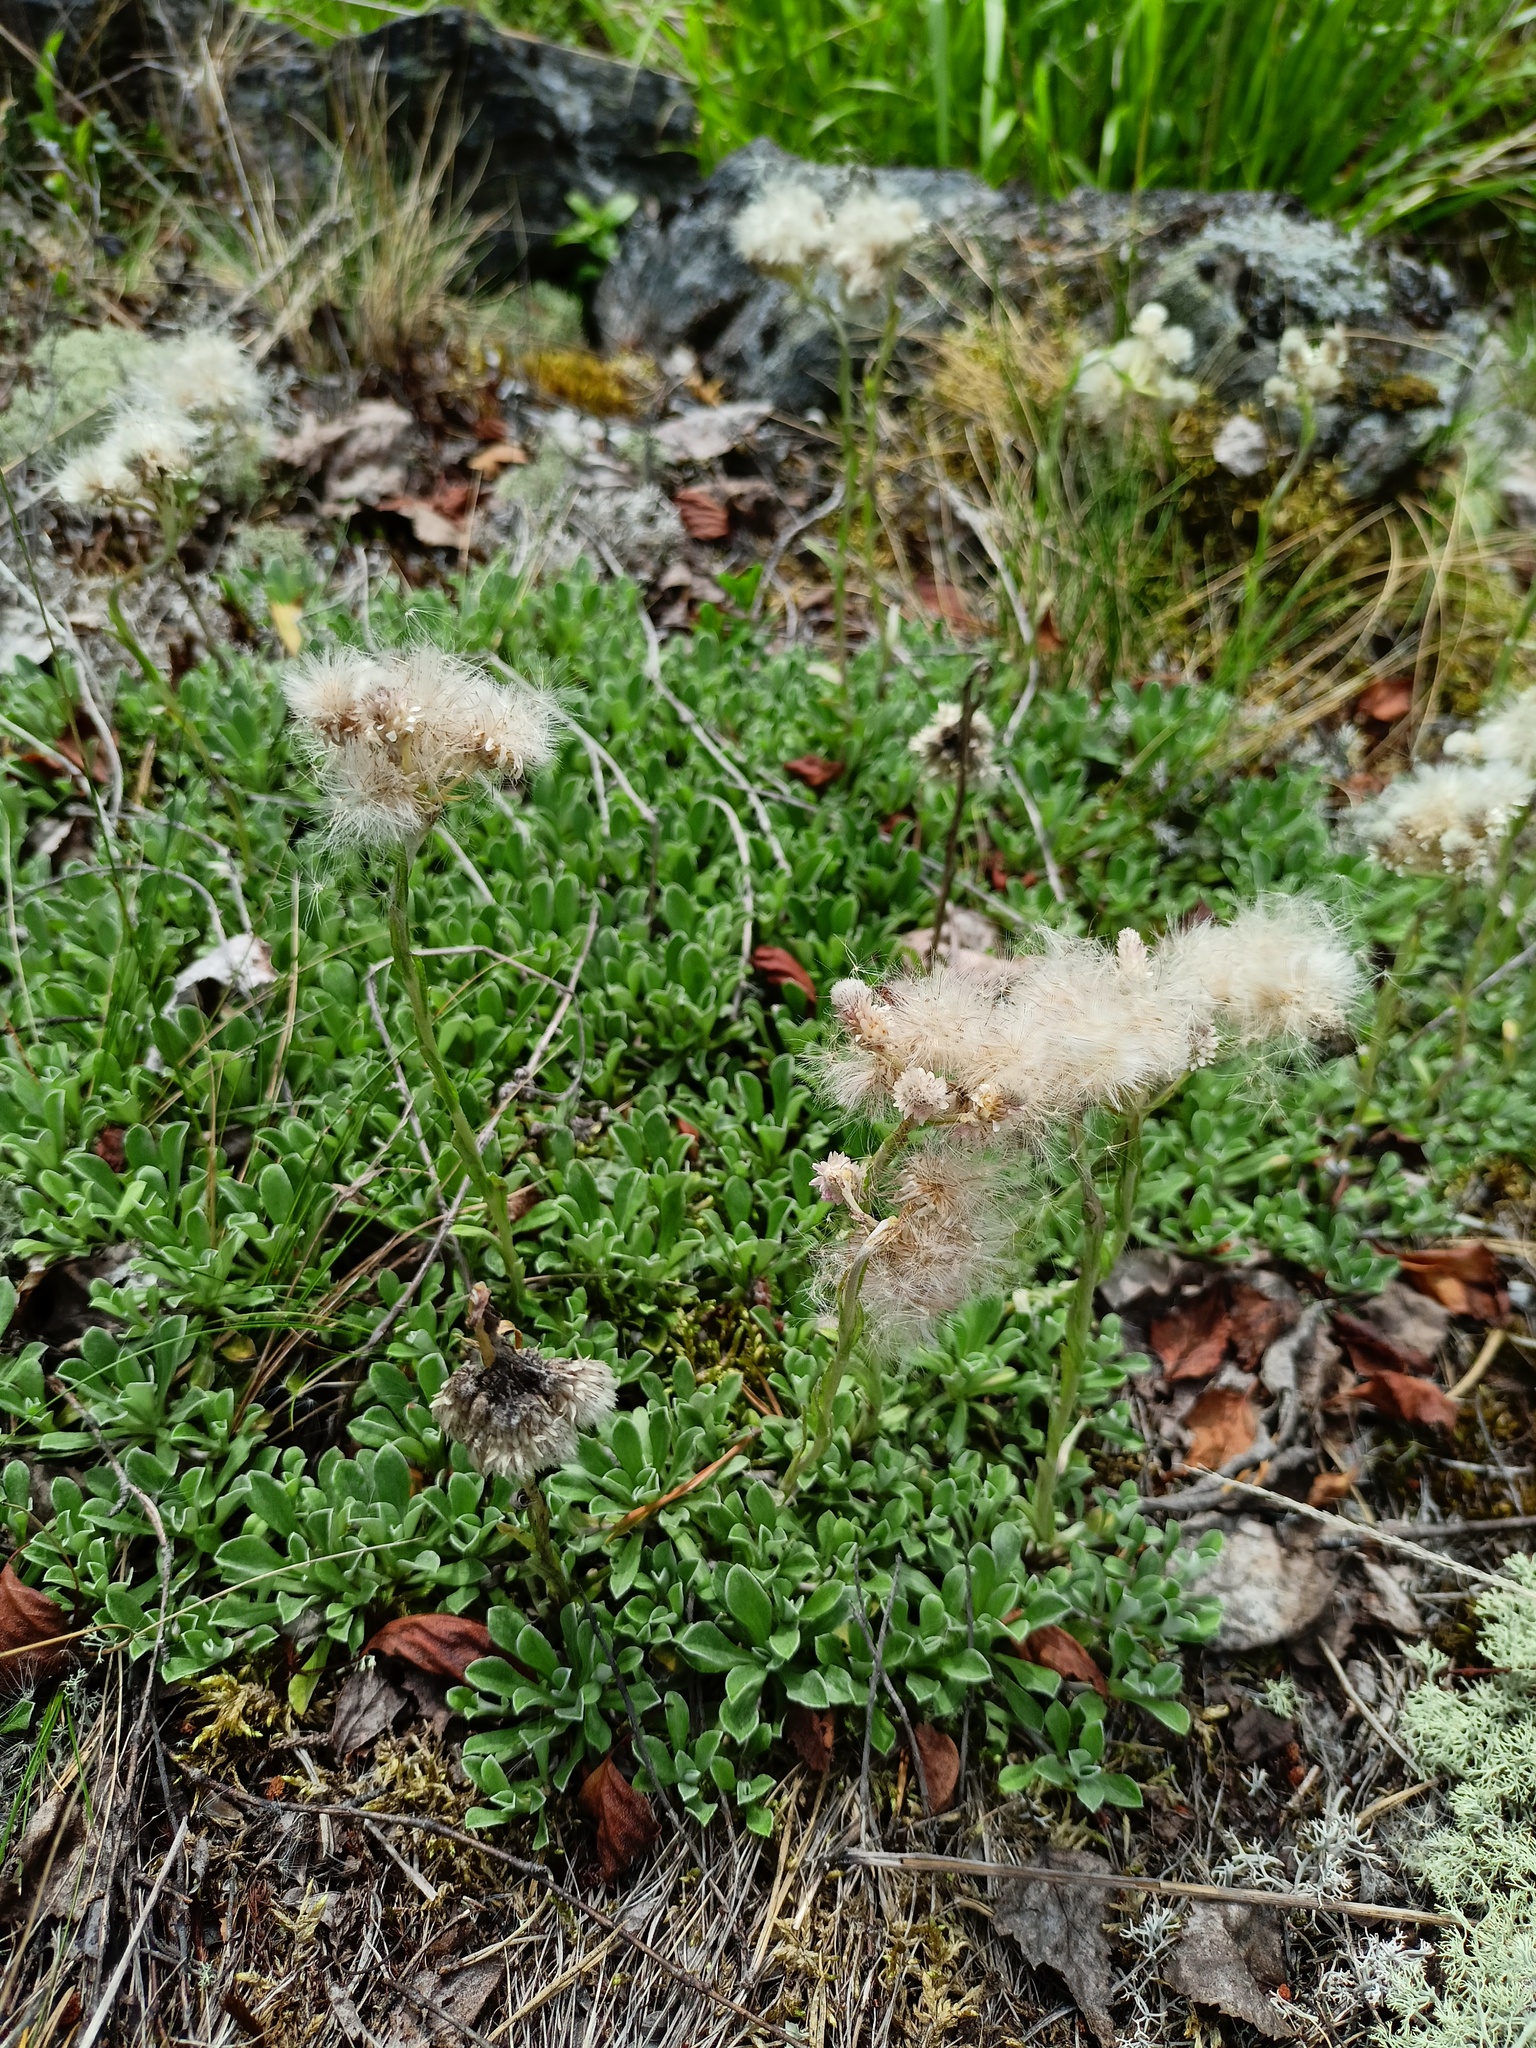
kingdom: Plantae
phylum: Tracheophyta
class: Magnoliopsida
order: Asterales
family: Asteraceae
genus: Antennaria
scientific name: Antennaria dioica
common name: Mountain everlasting
